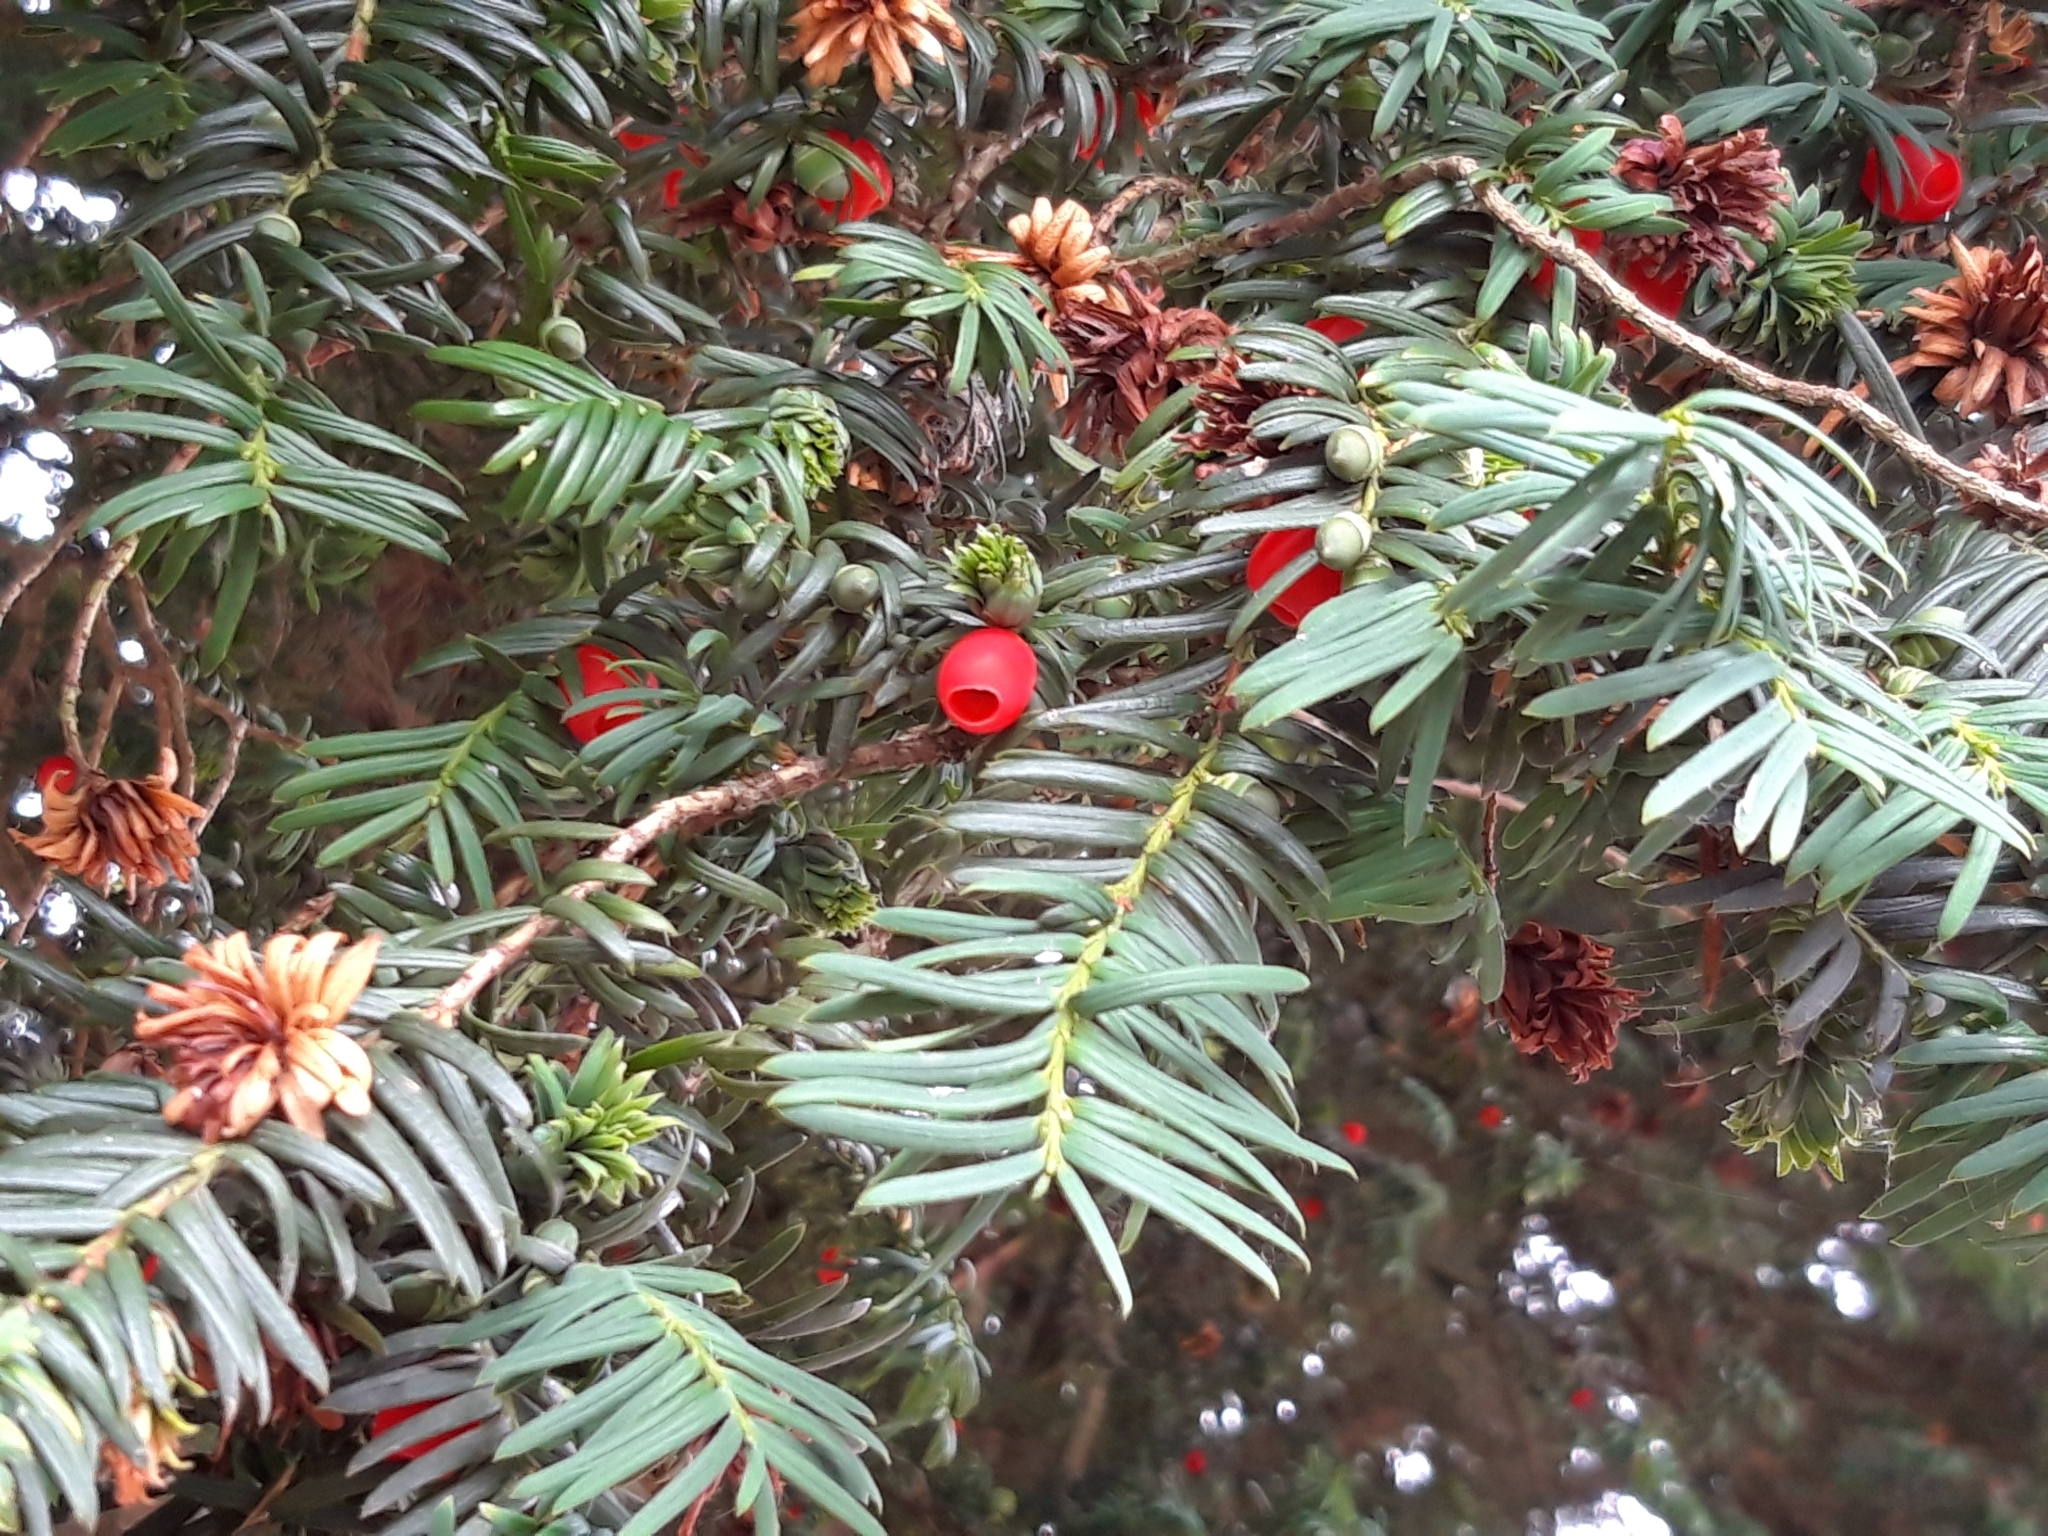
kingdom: Plantae
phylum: Tracheophyta
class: Pinopsida
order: Pinales
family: Taxaceae
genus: Taxus
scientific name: Taxus baccata
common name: Yew
